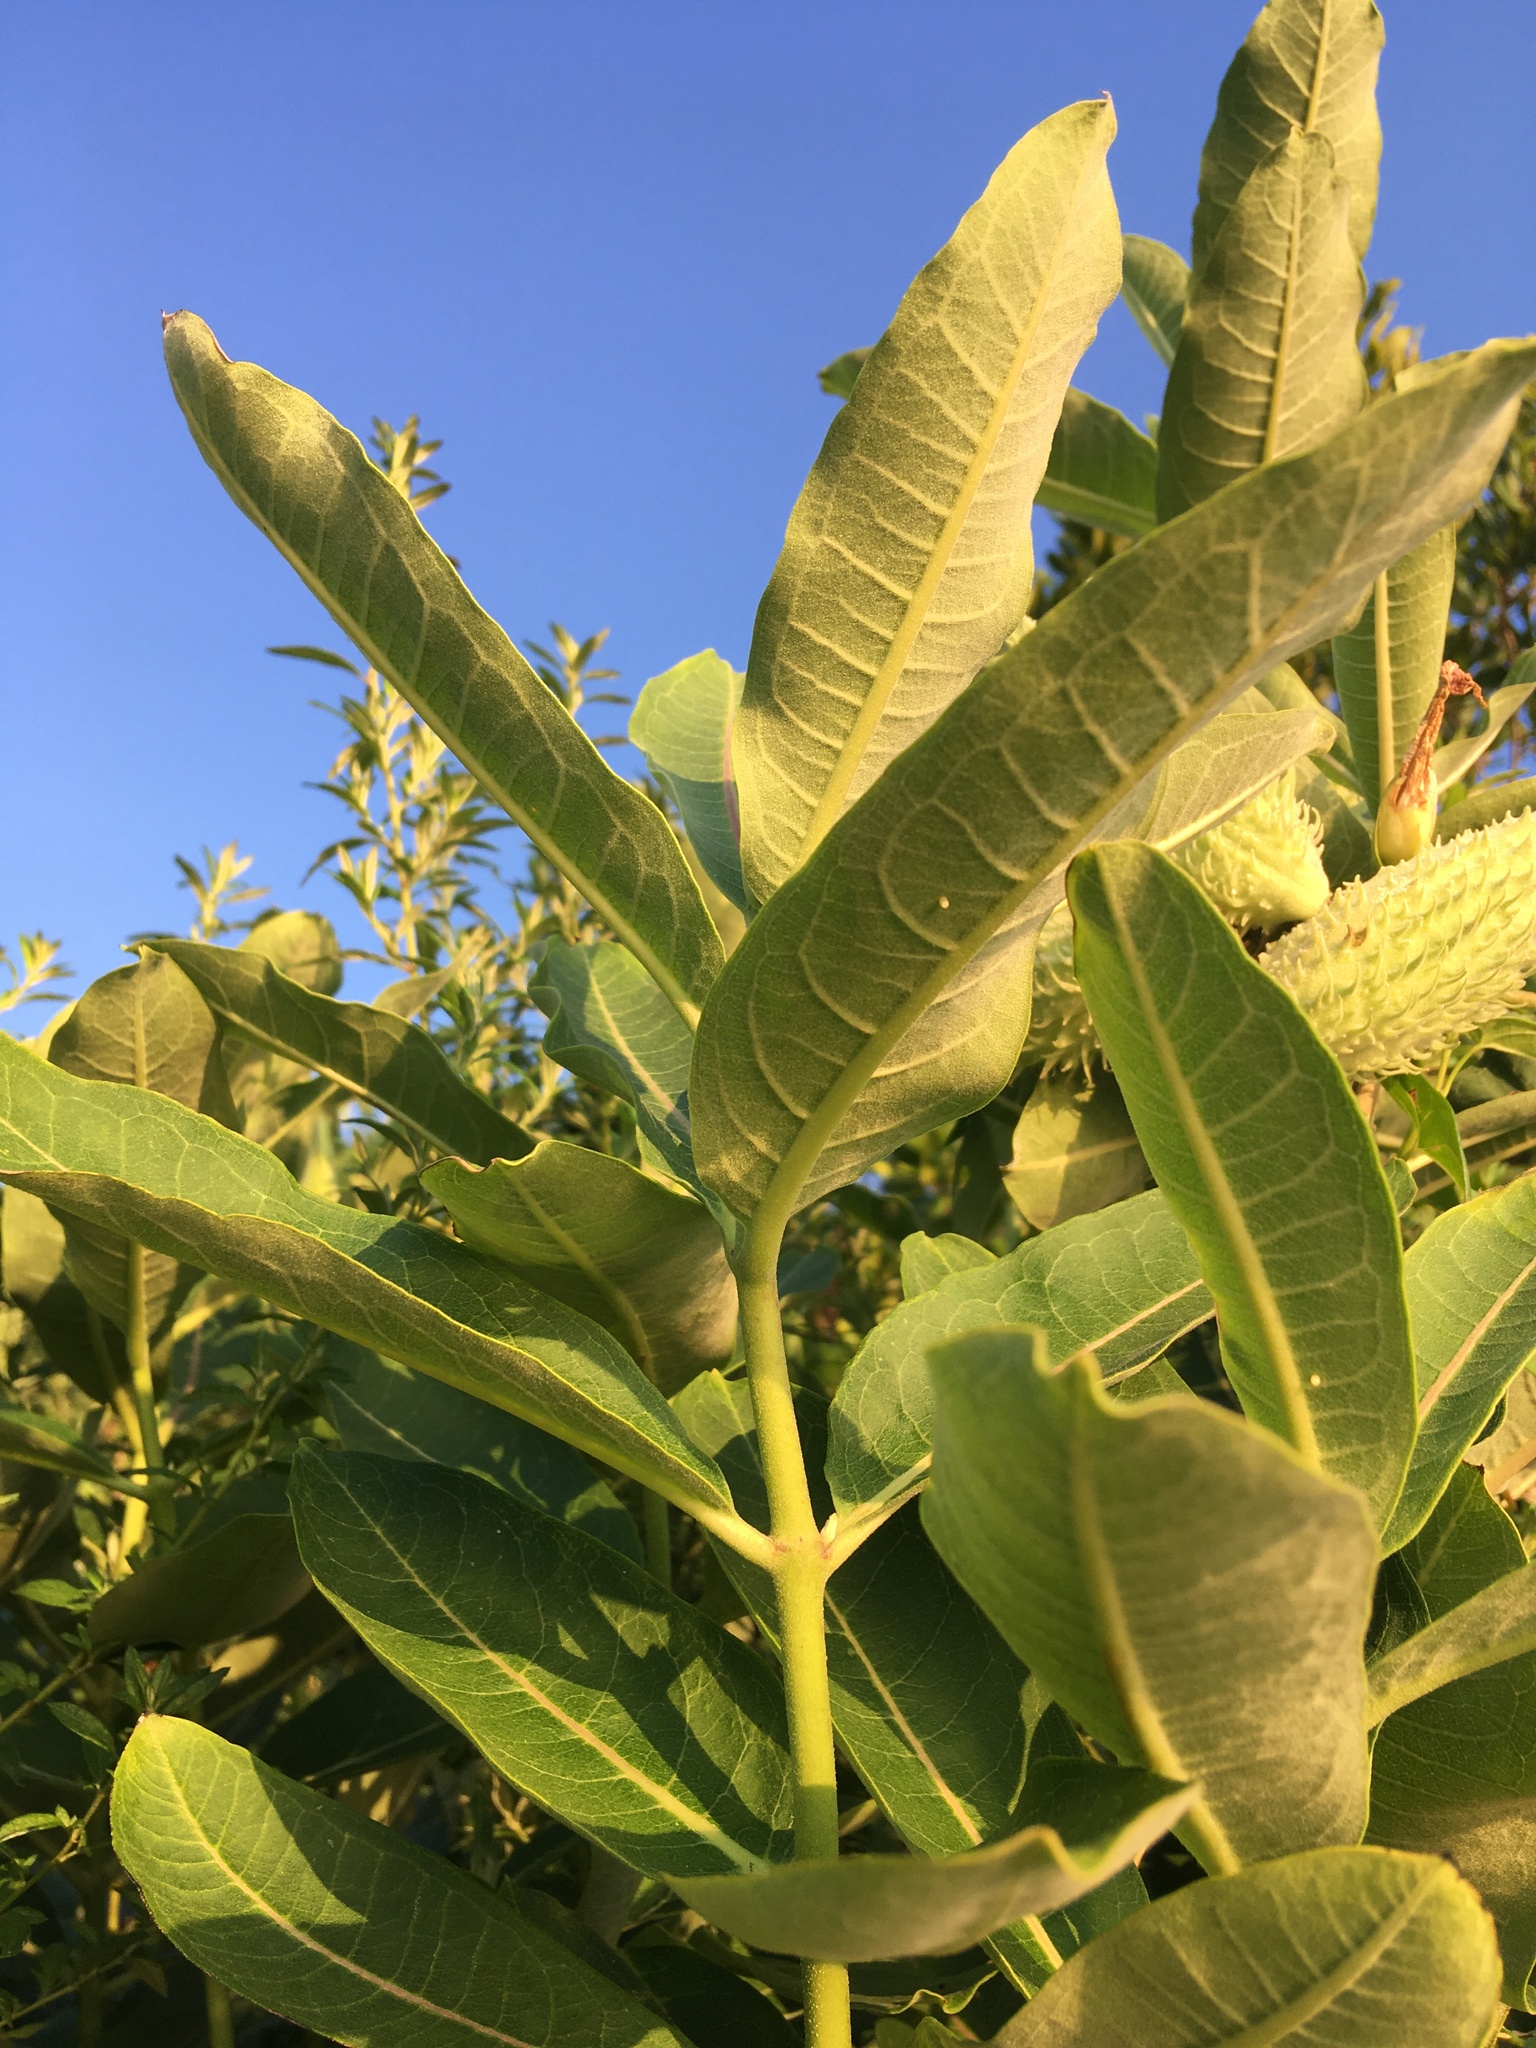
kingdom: Plantae
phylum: Tracheophyta
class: Magnoliopsida
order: Gentianales
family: Apocynaceae
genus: Asclepias
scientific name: Asclepias syriaca
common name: Common milkweed
